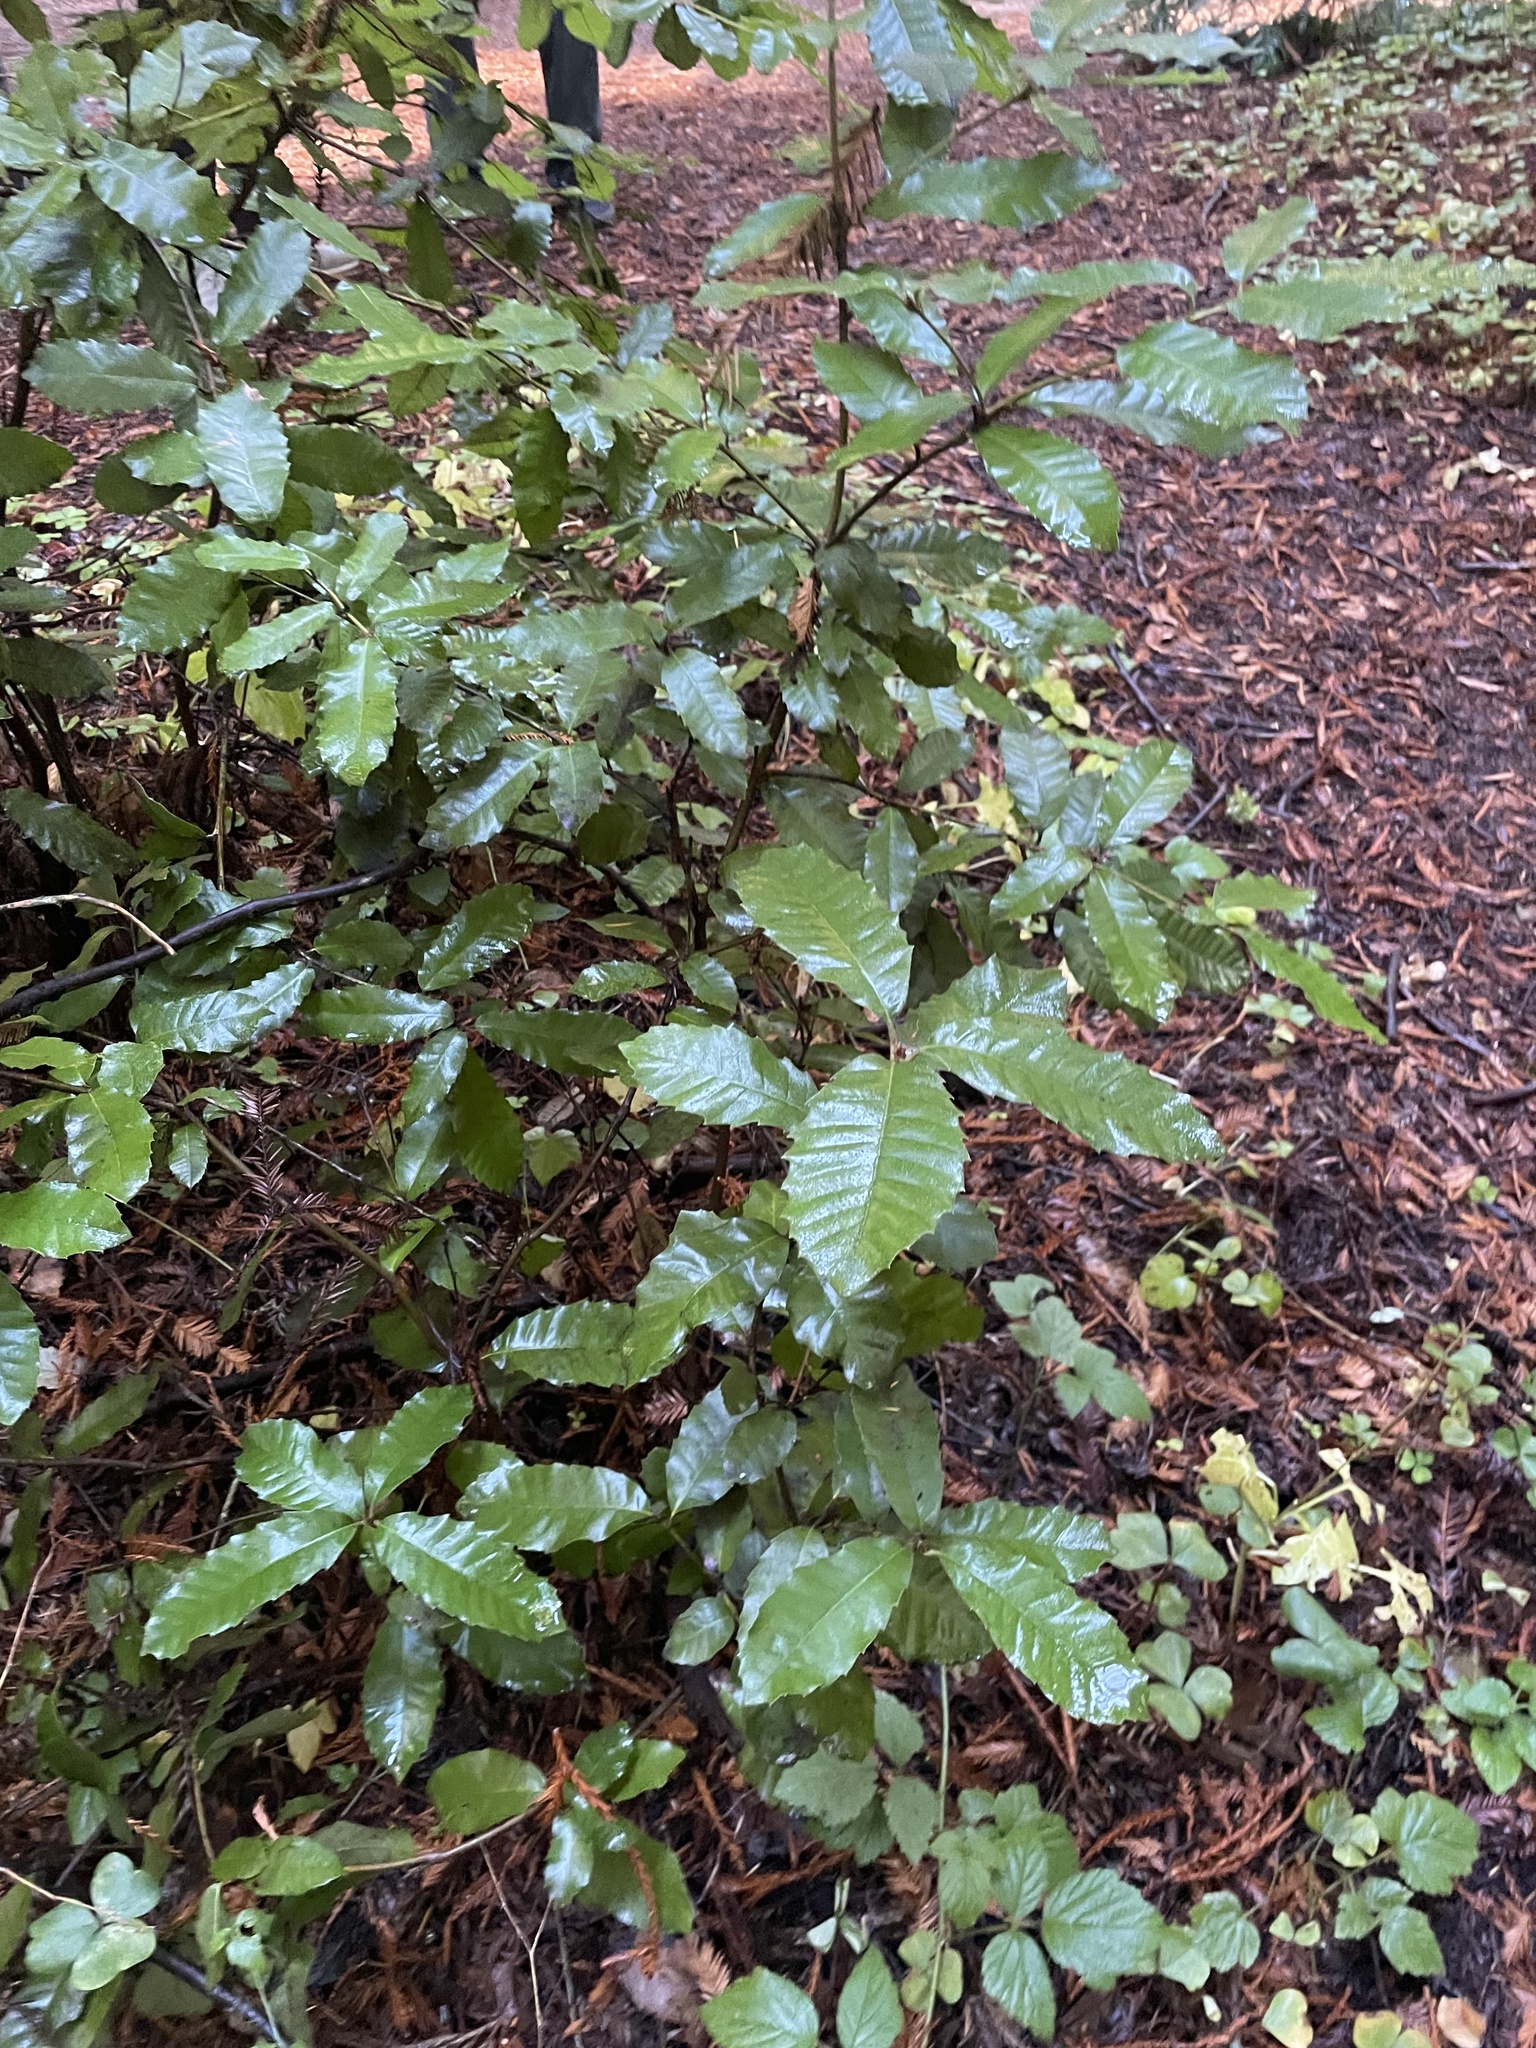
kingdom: Plantae
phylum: Tracheophyta
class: Magnoliopsida
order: Fagales
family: Fagaceae
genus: Notholithocarpus
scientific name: Notholithocarpus densiflorus
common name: Tan bark oak
